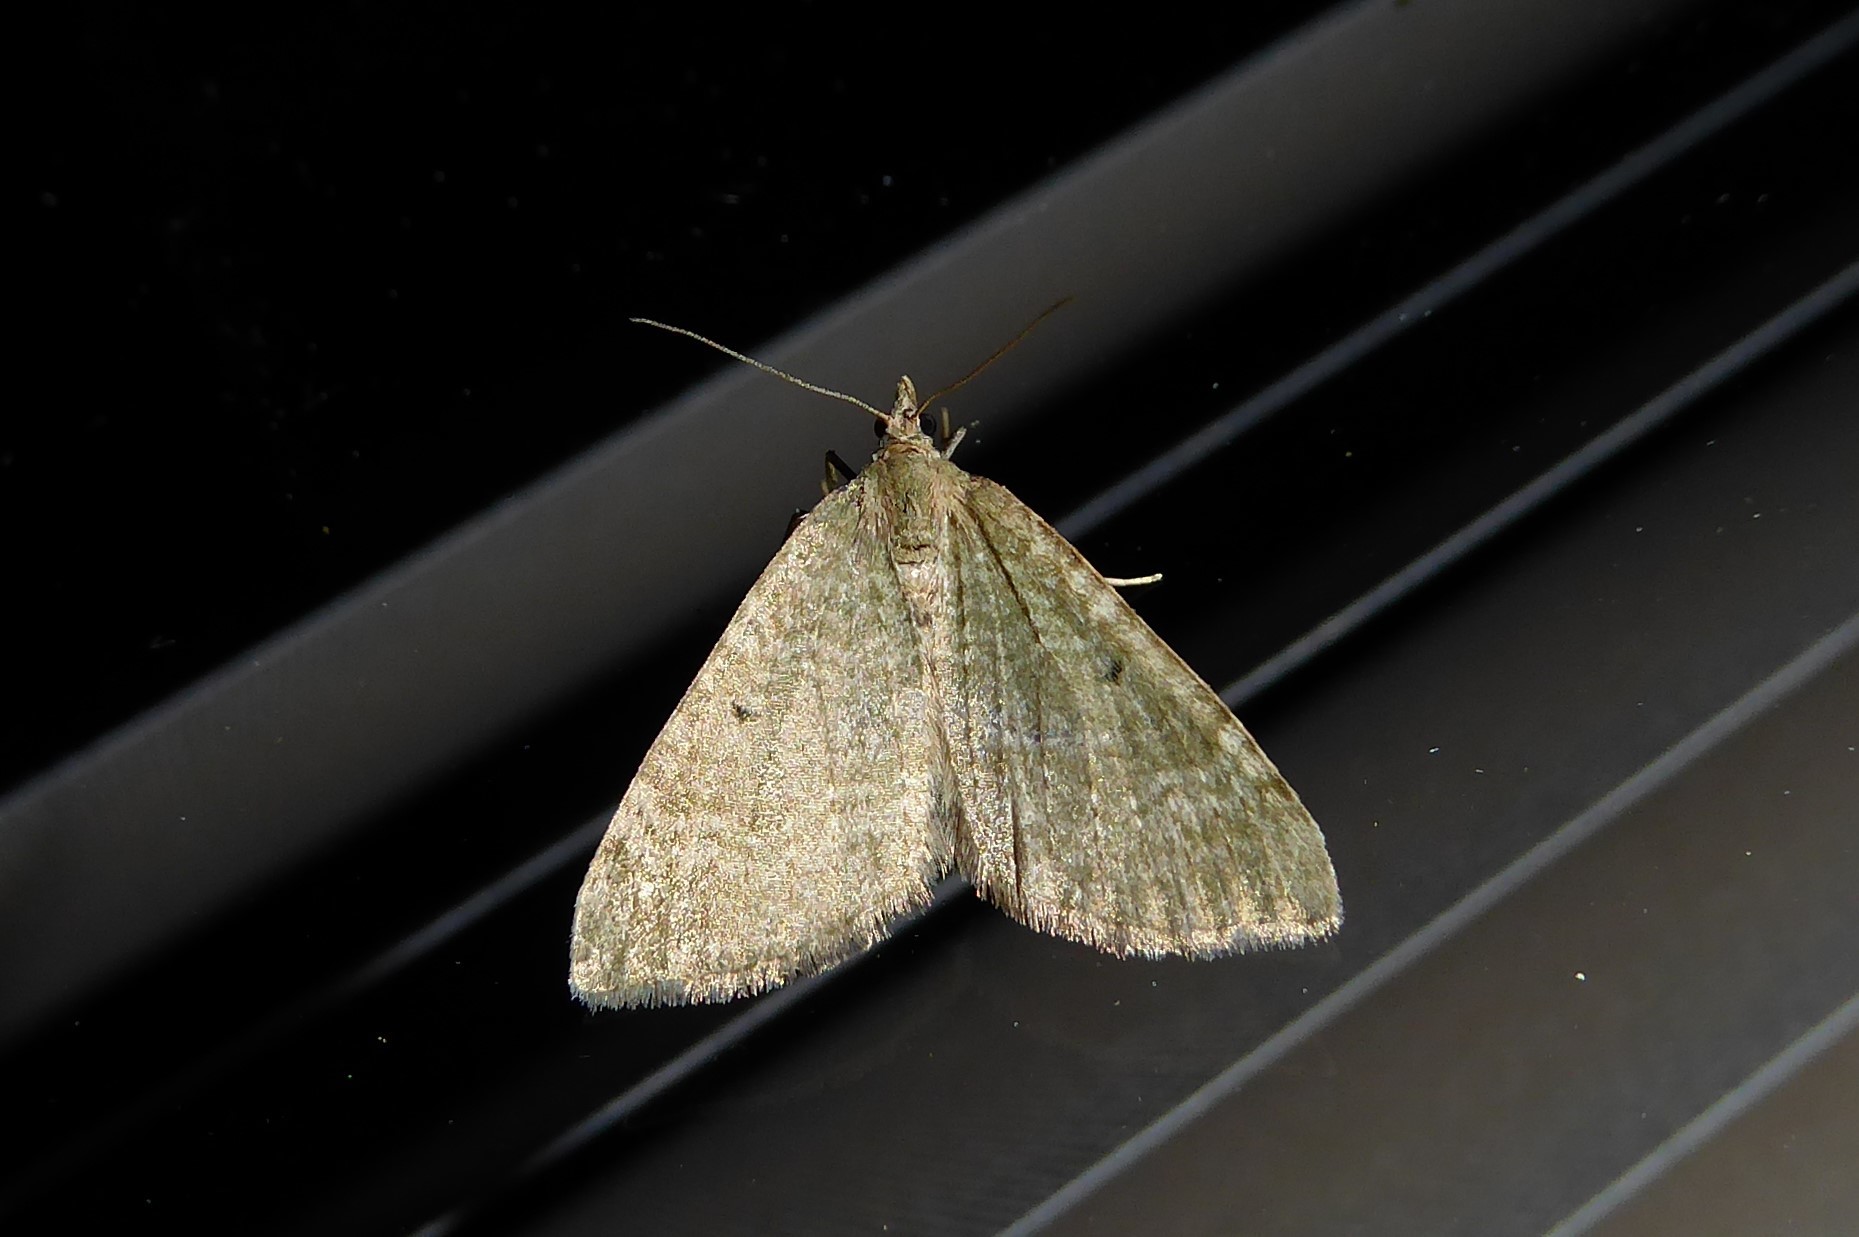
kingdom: Animalia
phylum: Arthropoda
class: Insecta
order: Lepidoptera
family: Geometridae
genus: Epyaxa
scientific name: Epyaxa rosearia
